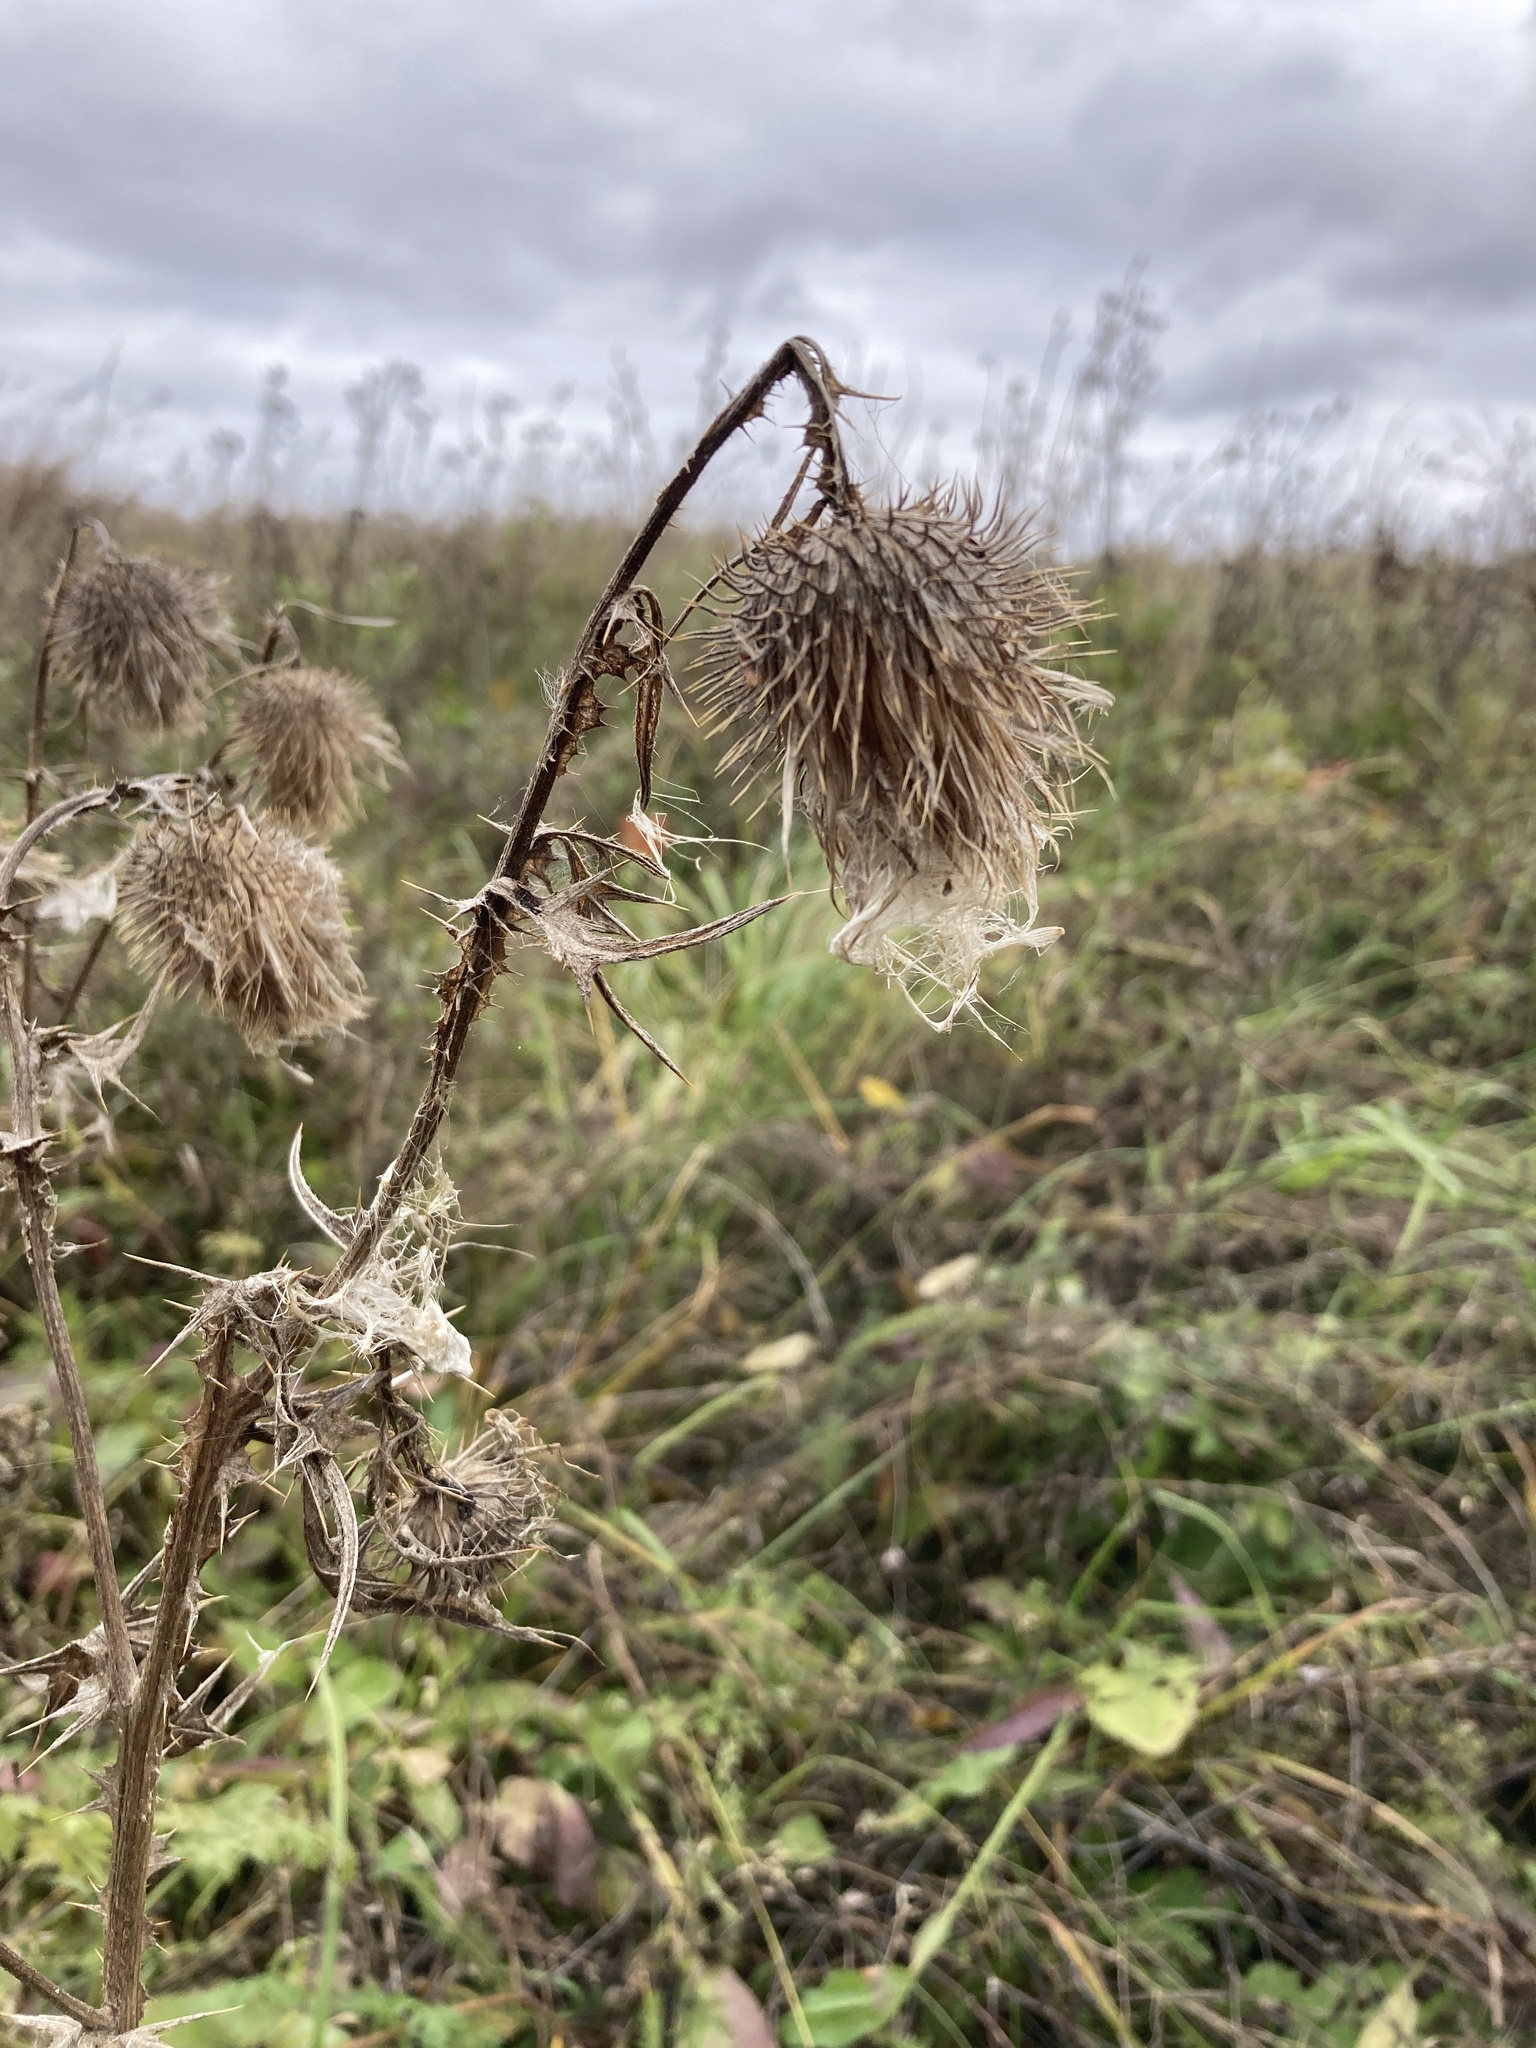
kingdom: Plantae
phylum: Tracheophyta
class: Magnoliopsida
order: Asterales
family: Asteraceae
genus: Cirsium
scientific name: Cirsium vulgare
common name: Bull thistle
